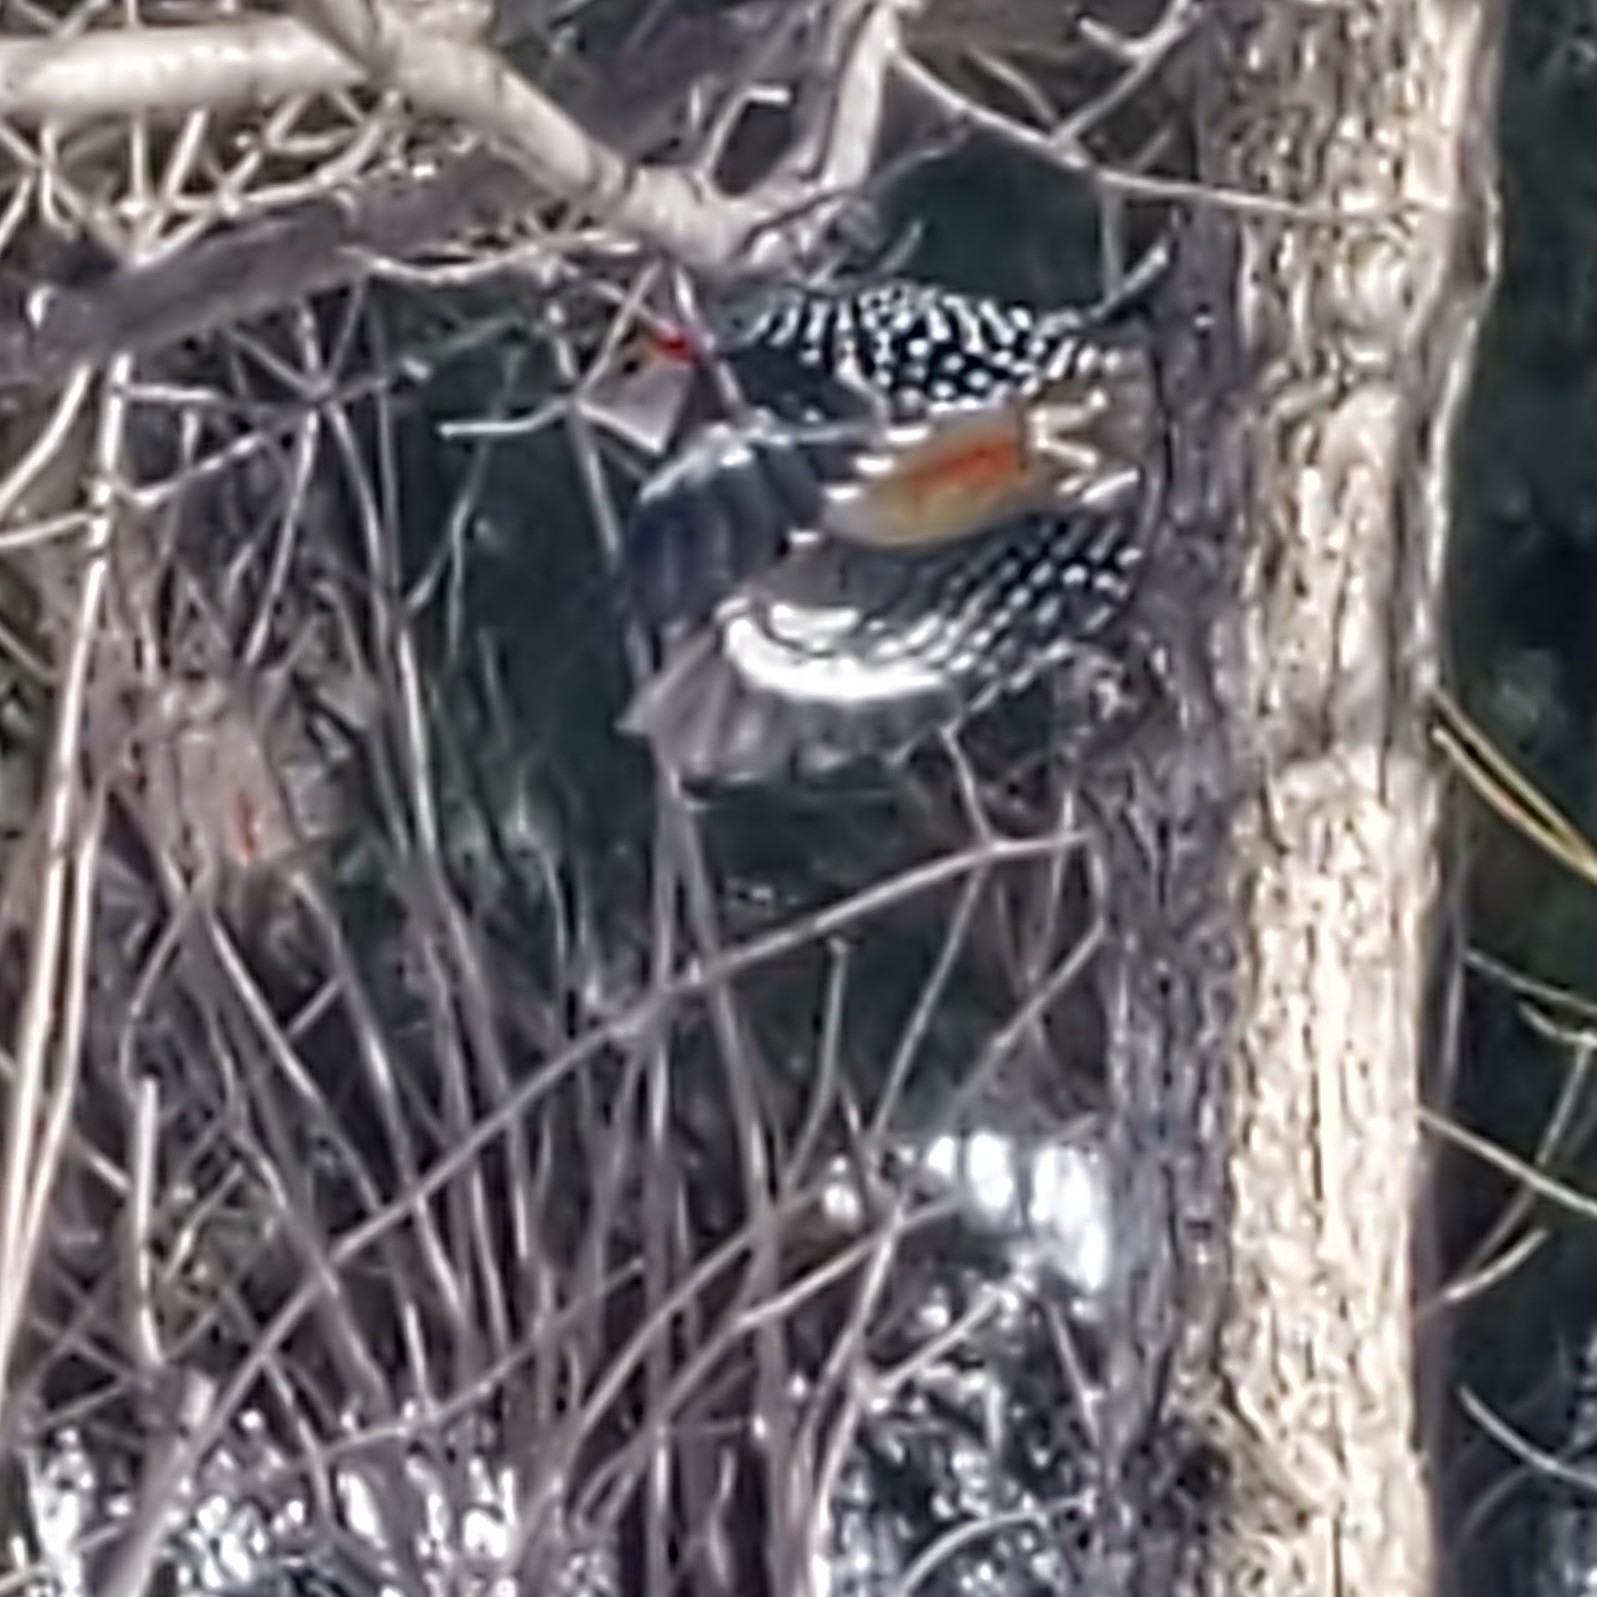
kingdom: Animalia
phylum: Chordata
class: Aves
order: Piciformes
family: Picidae
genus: Melanerpes
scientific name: Melanerpes carolinus
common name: Red-bellied woodpecker
